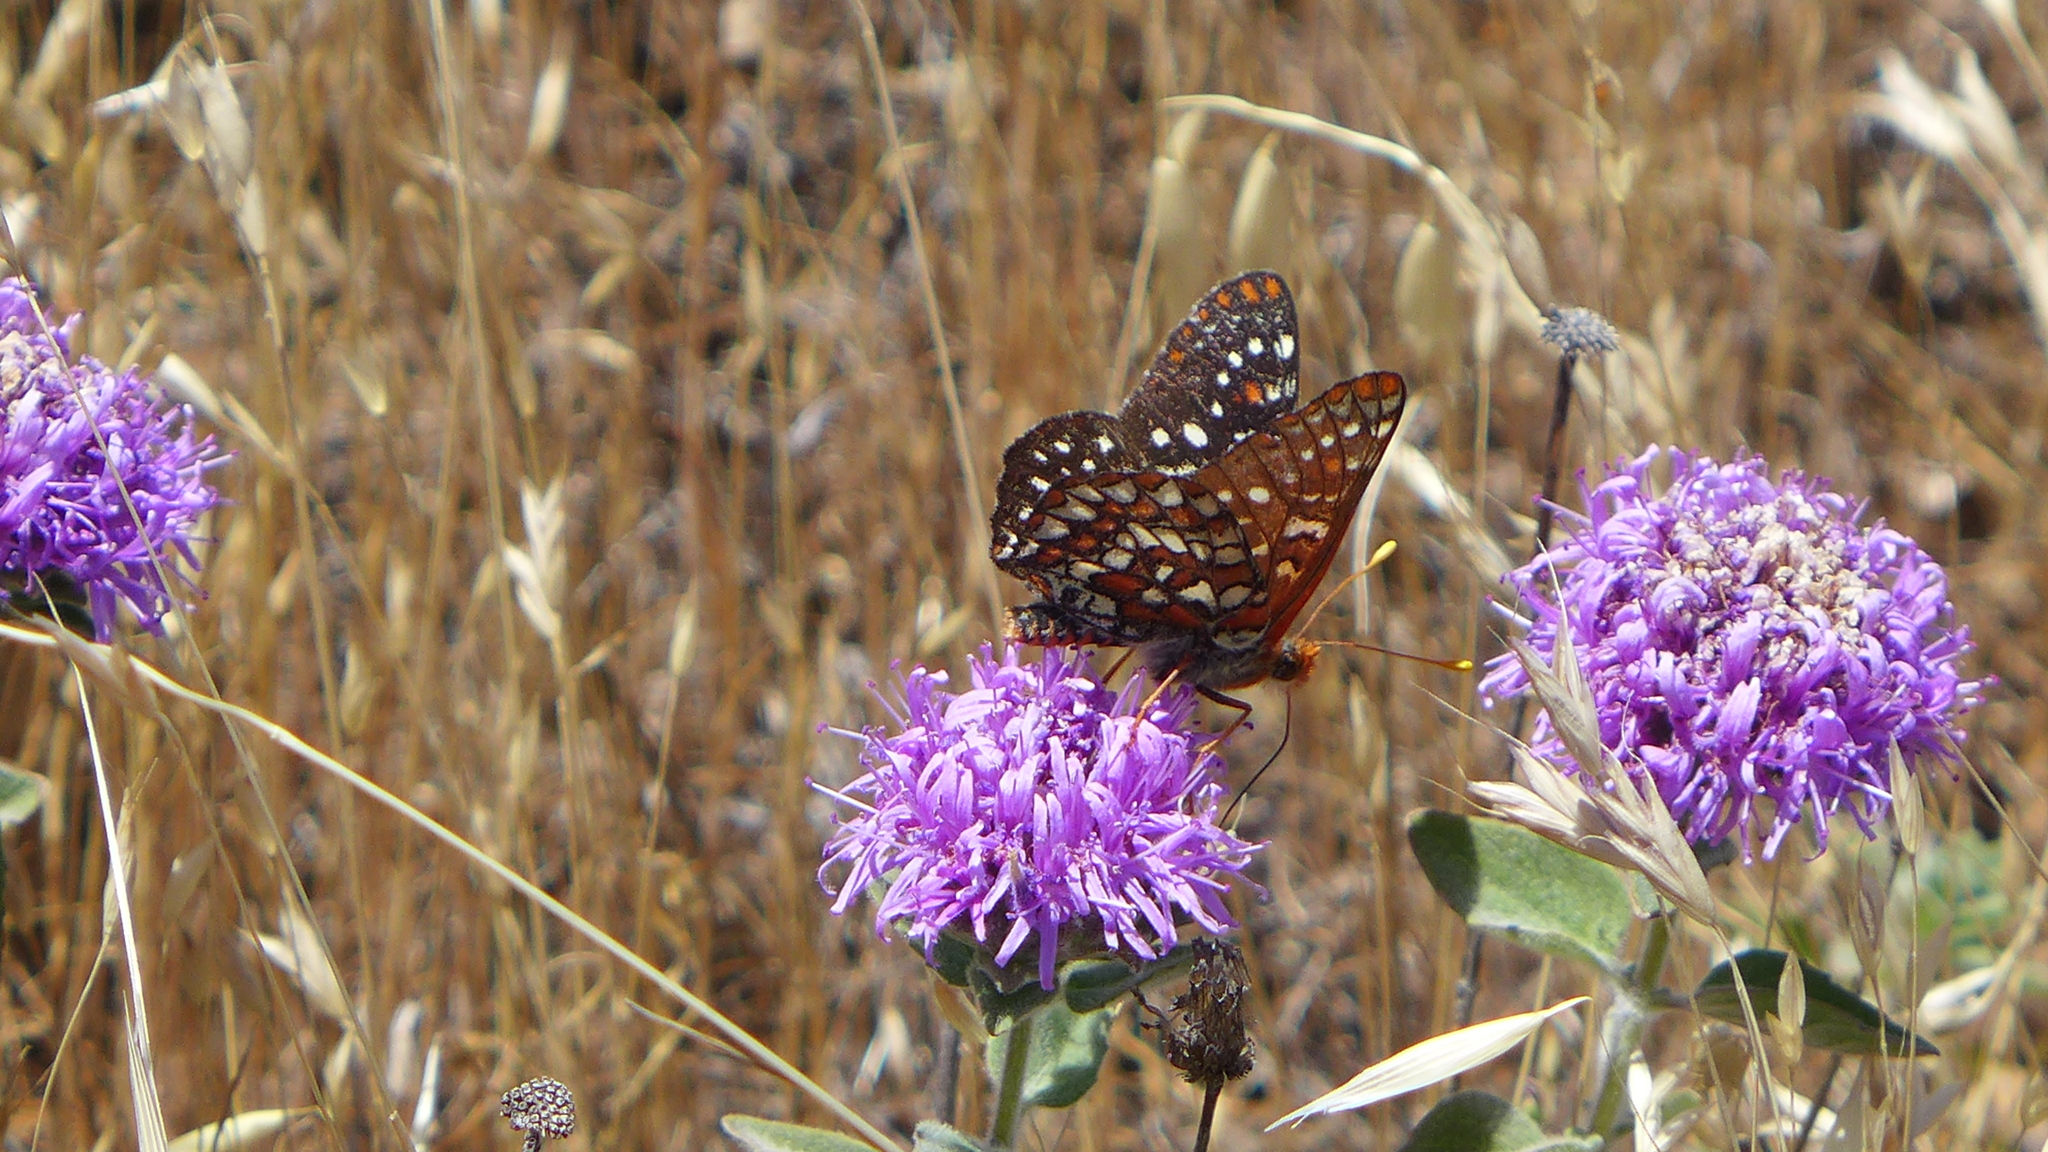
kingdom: Plantae
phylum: Tracheophyta
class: Magnoliopsida
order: Lamiales
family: Lamiaceae
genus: Monardella
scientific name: Monardella odoratissima
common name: Pacific monardella
